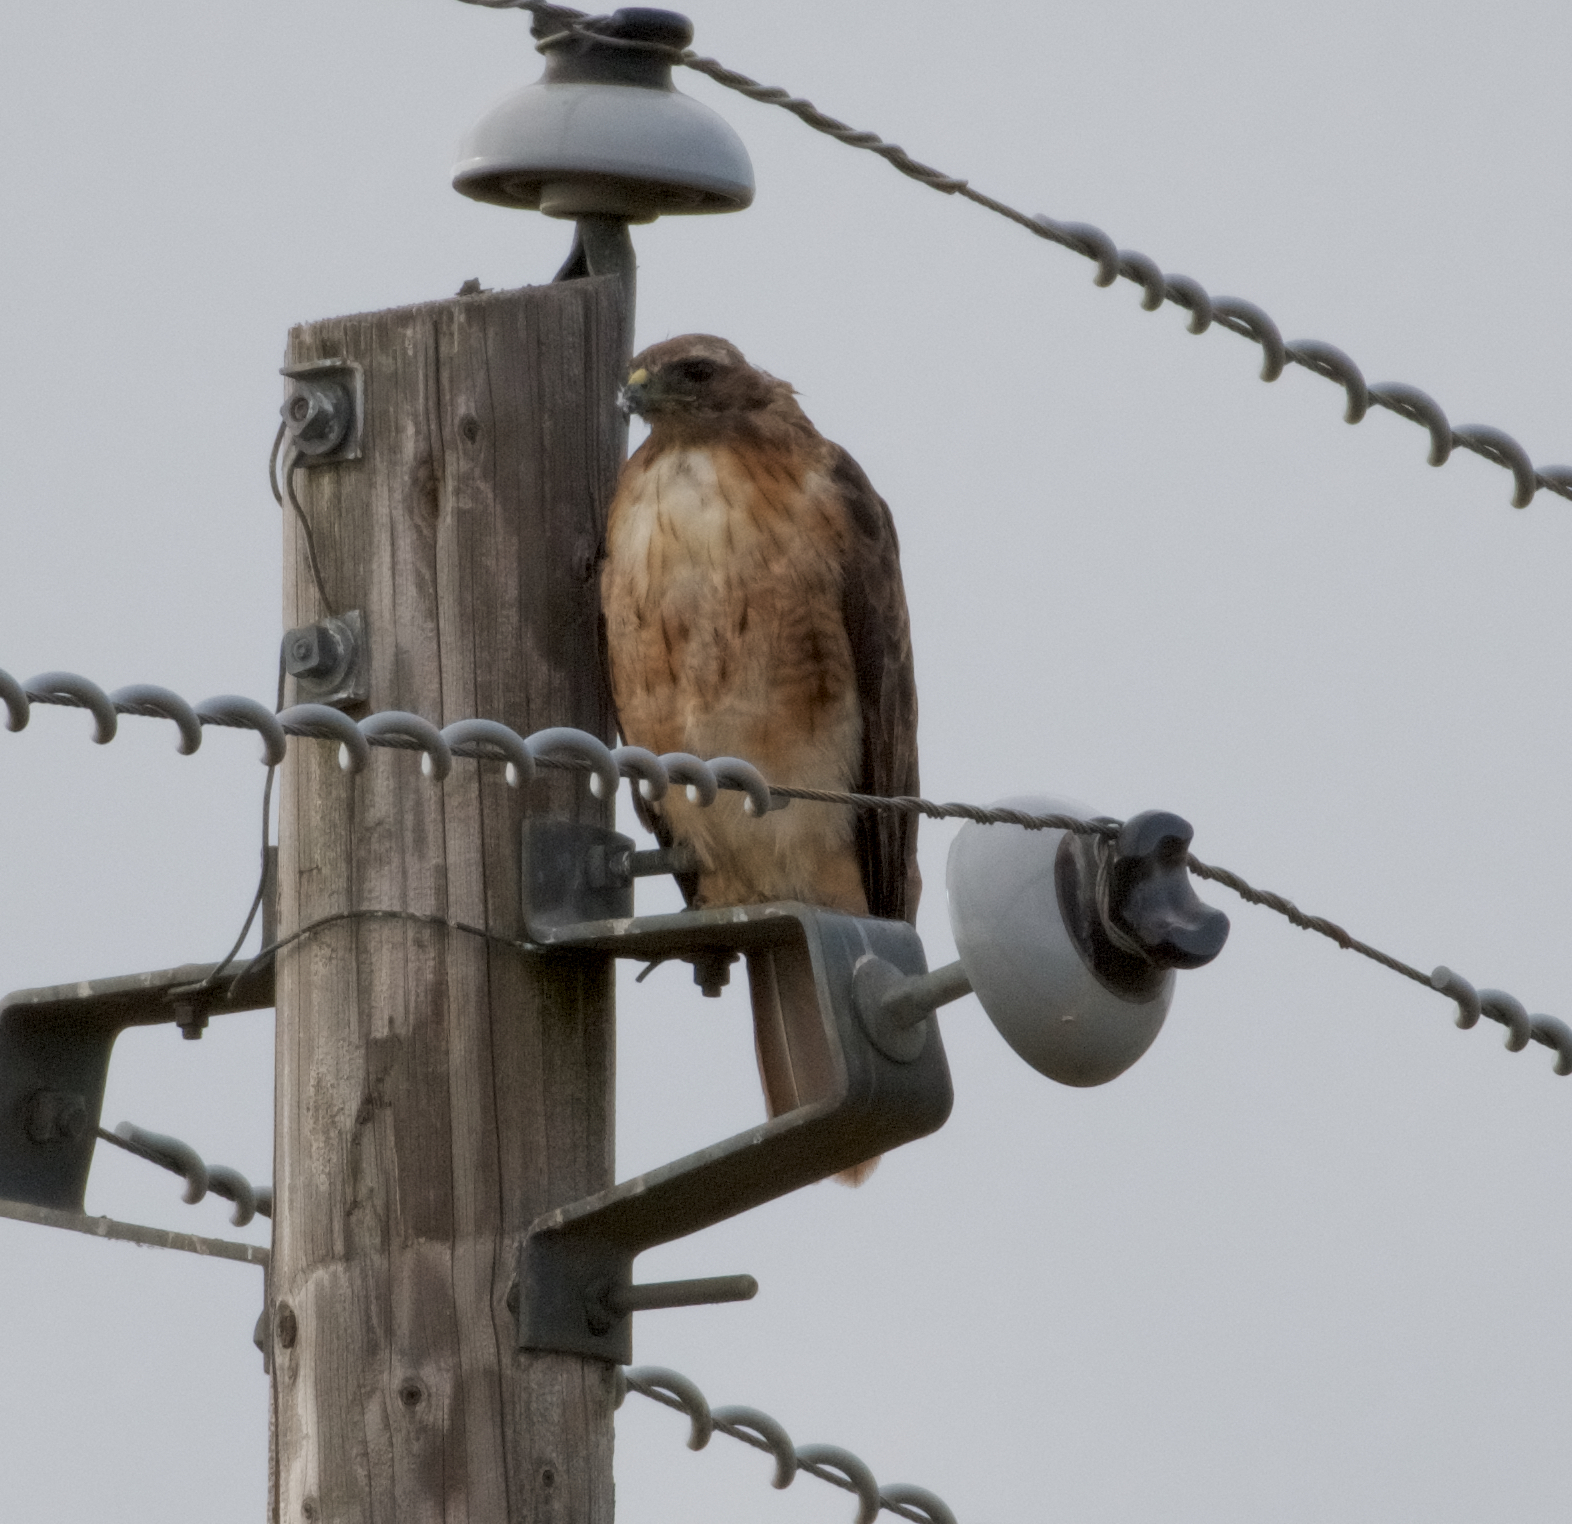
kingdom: Animalia
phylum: Chordata
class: Aves
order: Accipitriformes
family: Accipitridae
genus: Buteo
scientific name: Buteo jamaicensis
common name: Red-tailed hawk
